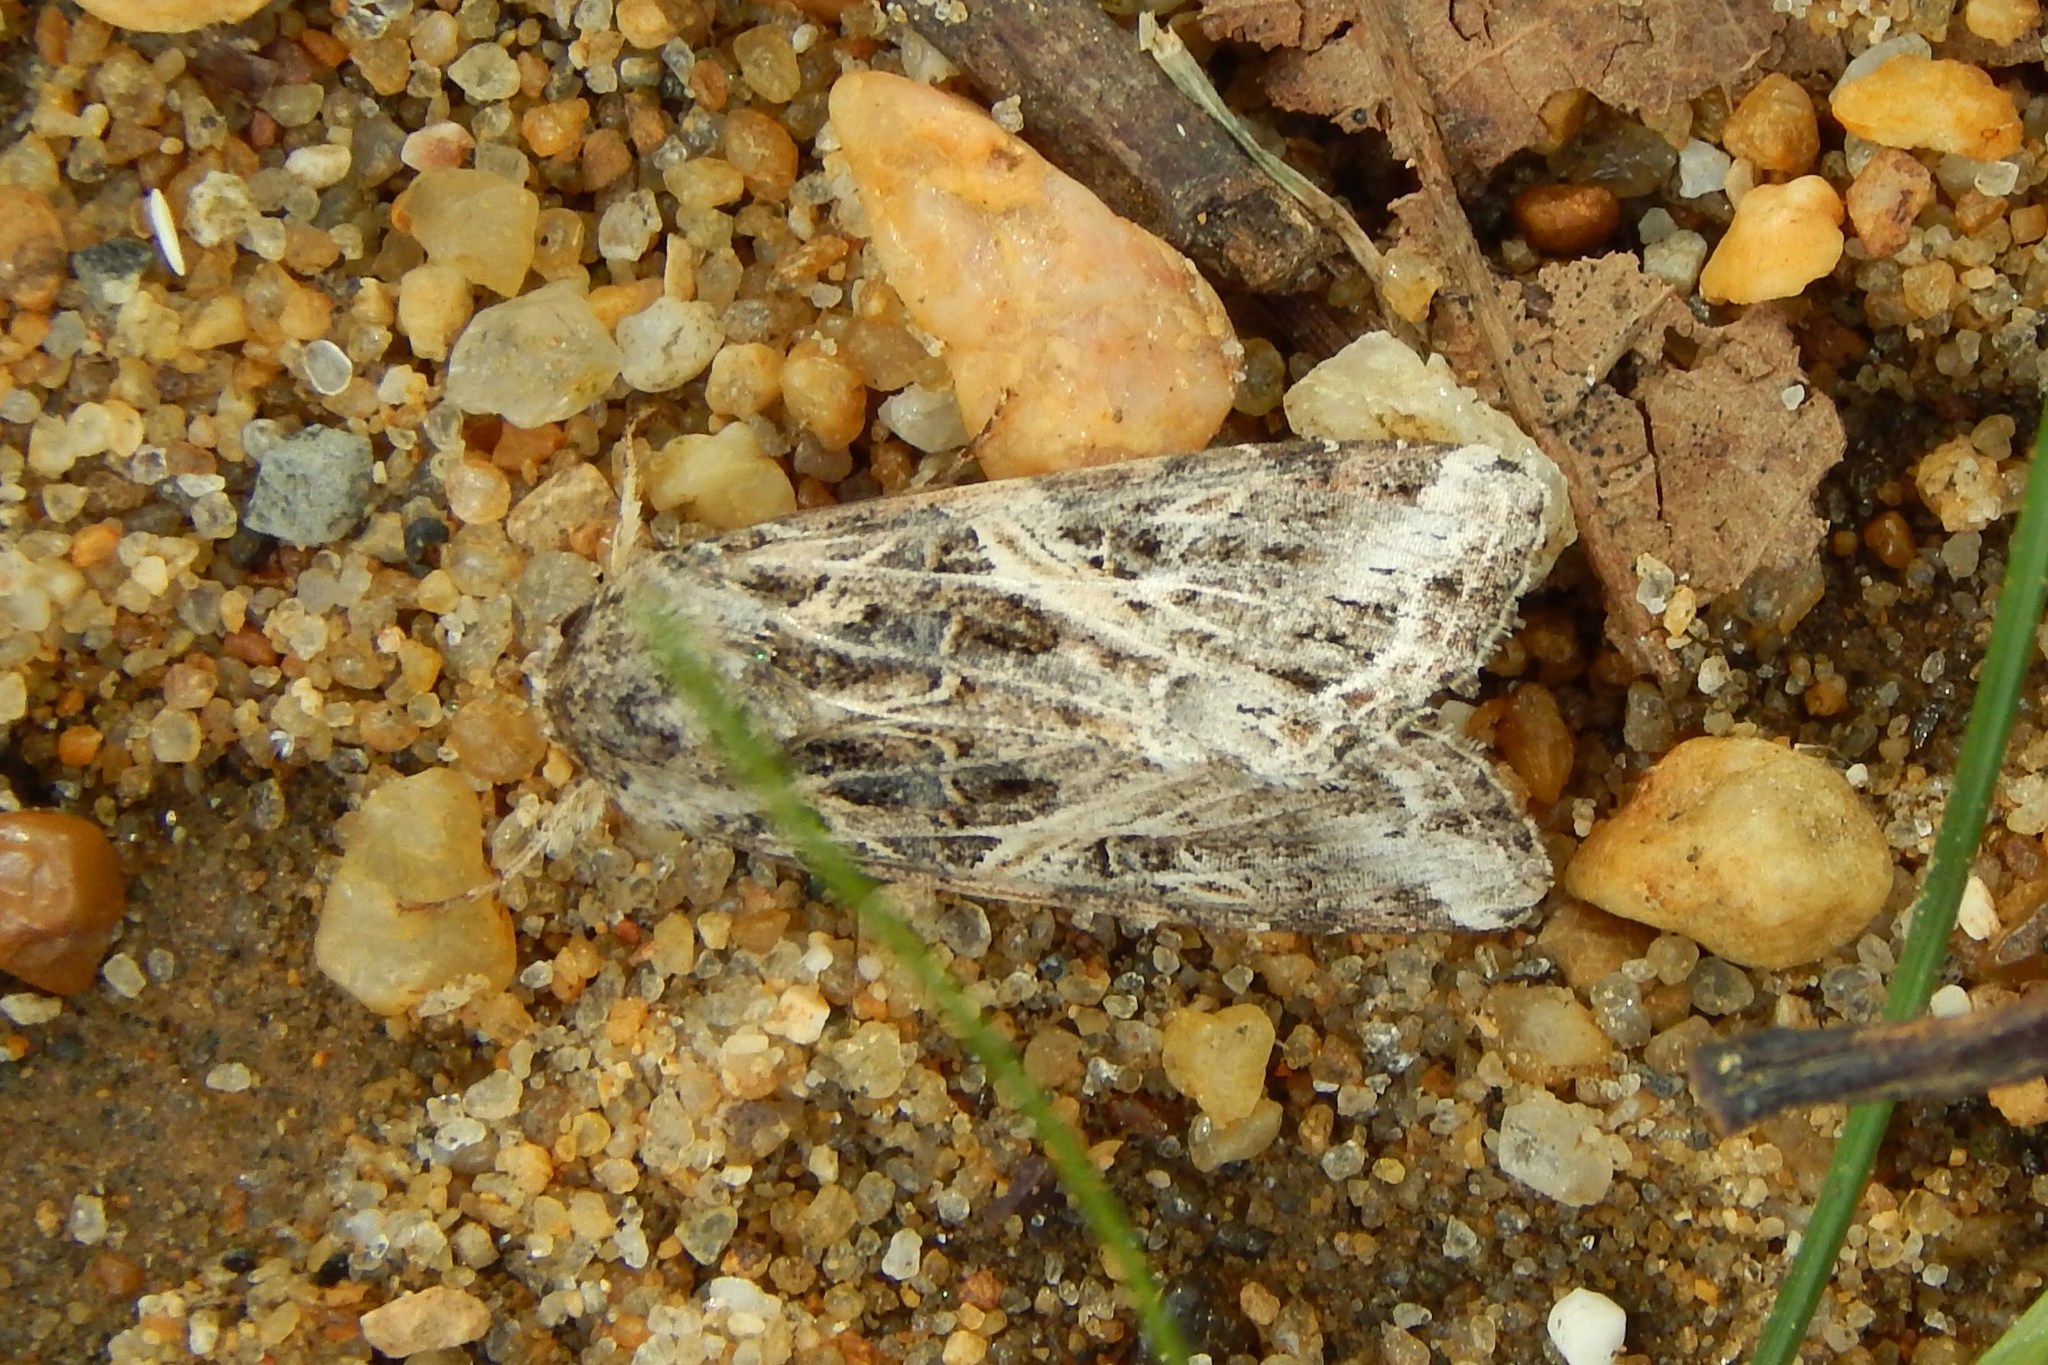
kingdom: Animalia
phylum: Arthropoda
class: Insecta
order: Lepidoptera
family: Noctuidae
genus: Spodoptera
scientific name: Spodoptera ornithogalli
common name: Yellow-striped armyworm
